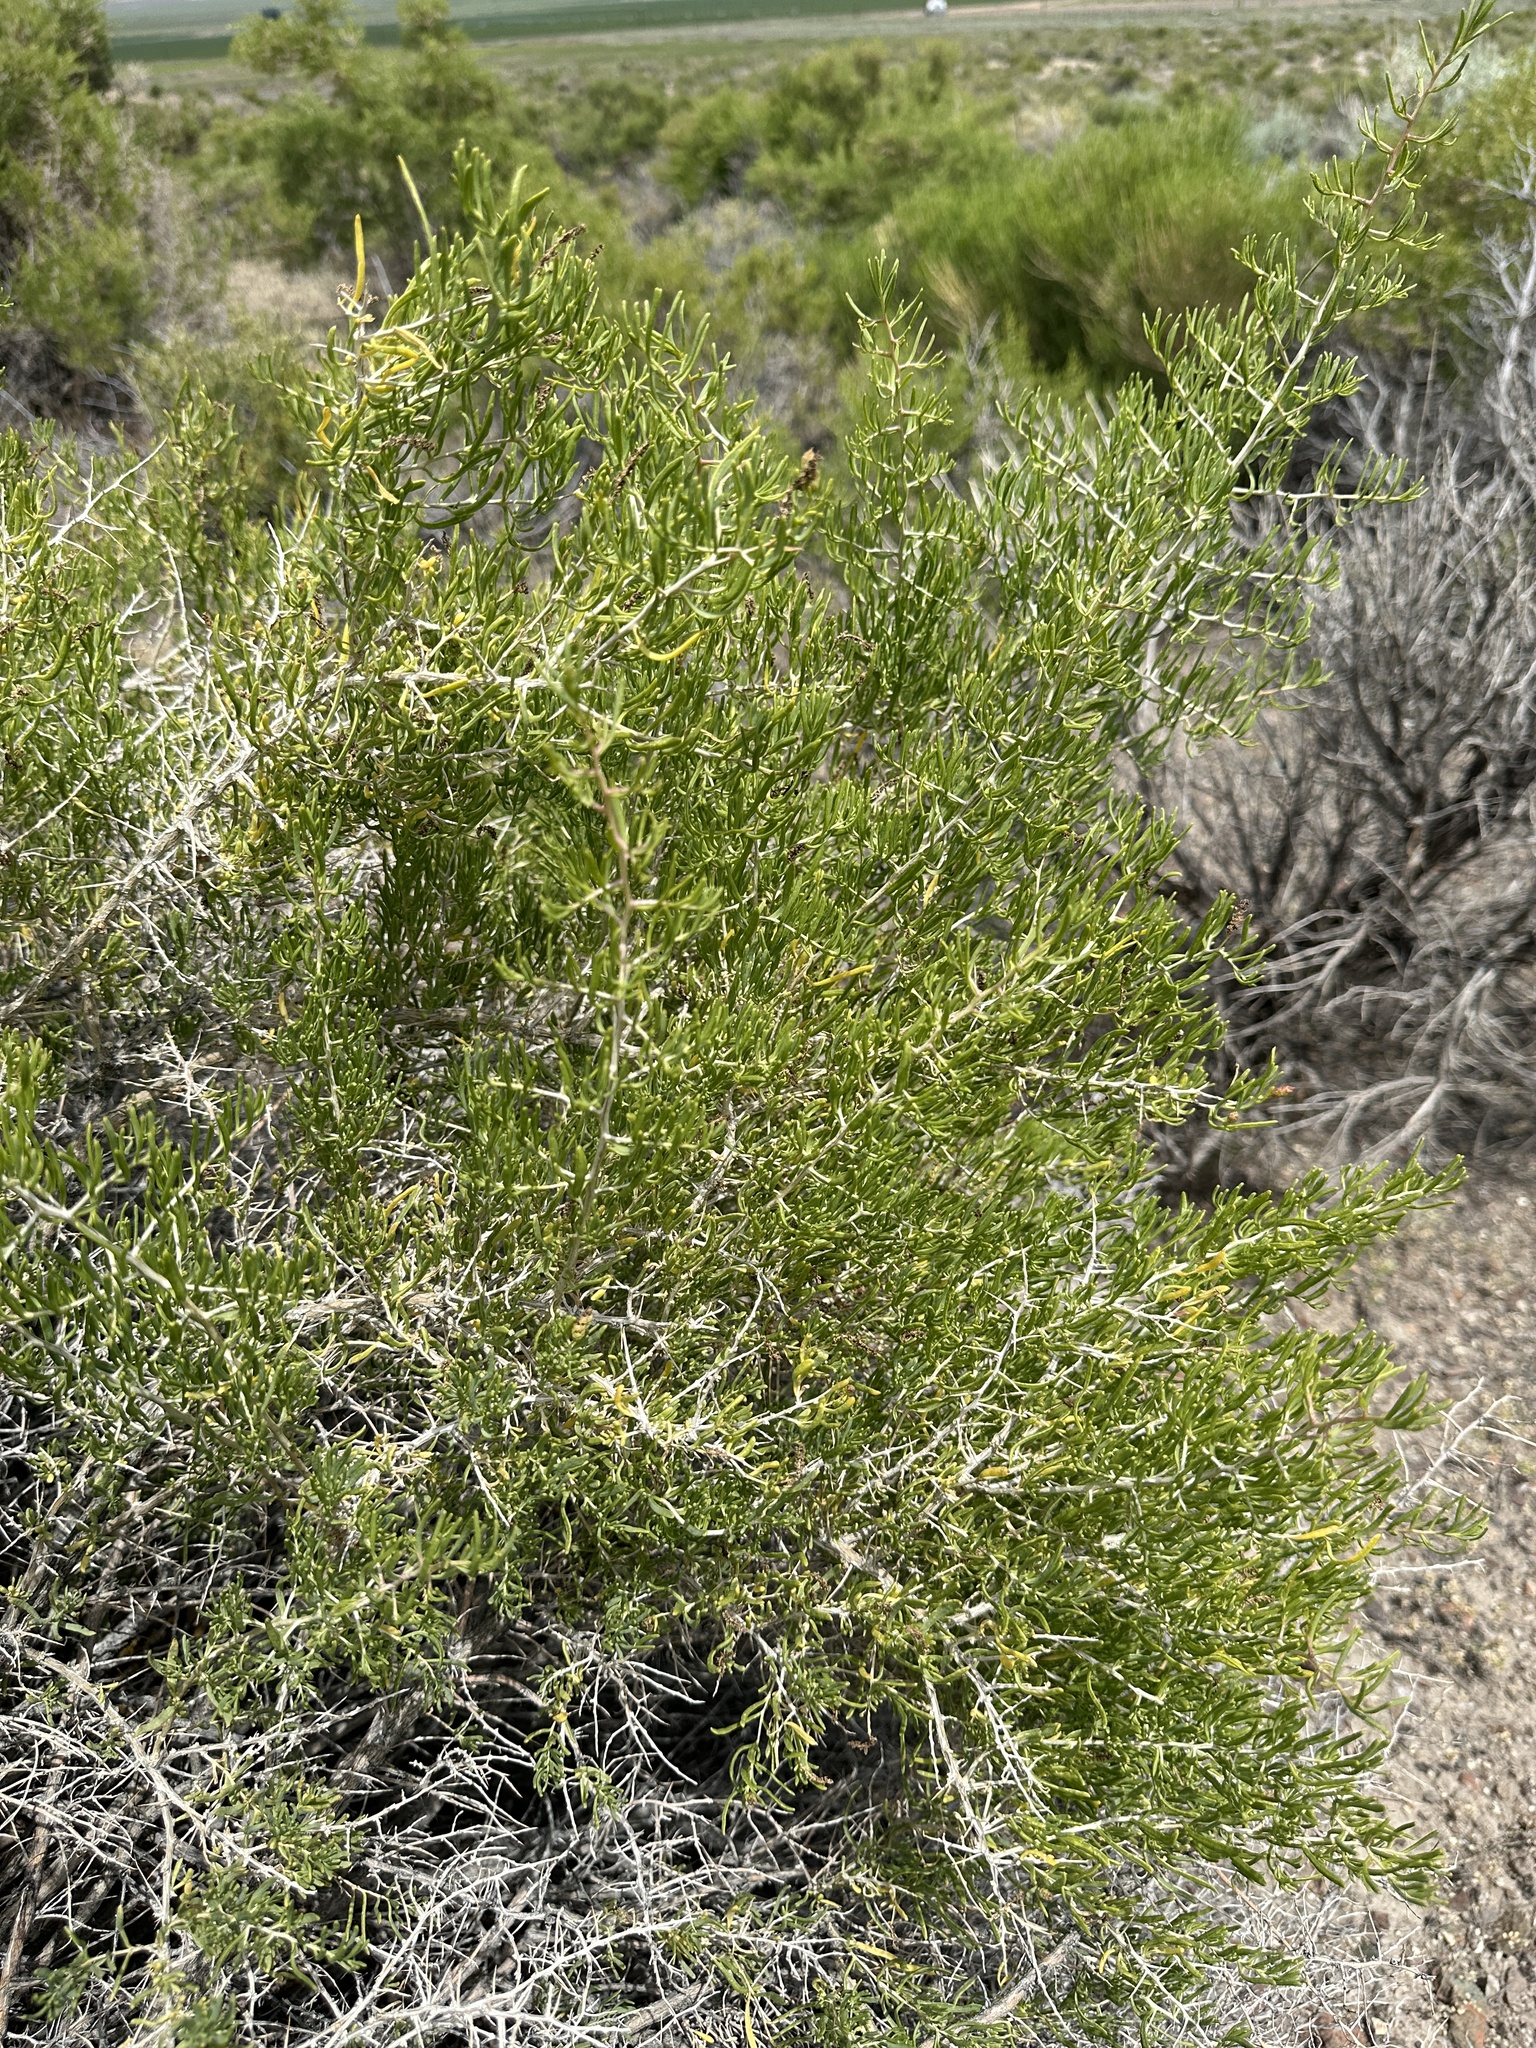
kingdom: Plantae
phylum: Tracheophyta
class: Magnoliopsida
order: Caryophyllales
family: Sarcobataceae
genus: Sarcobatus
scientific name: Sarcobatus vermiculatus
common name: Greasewood
